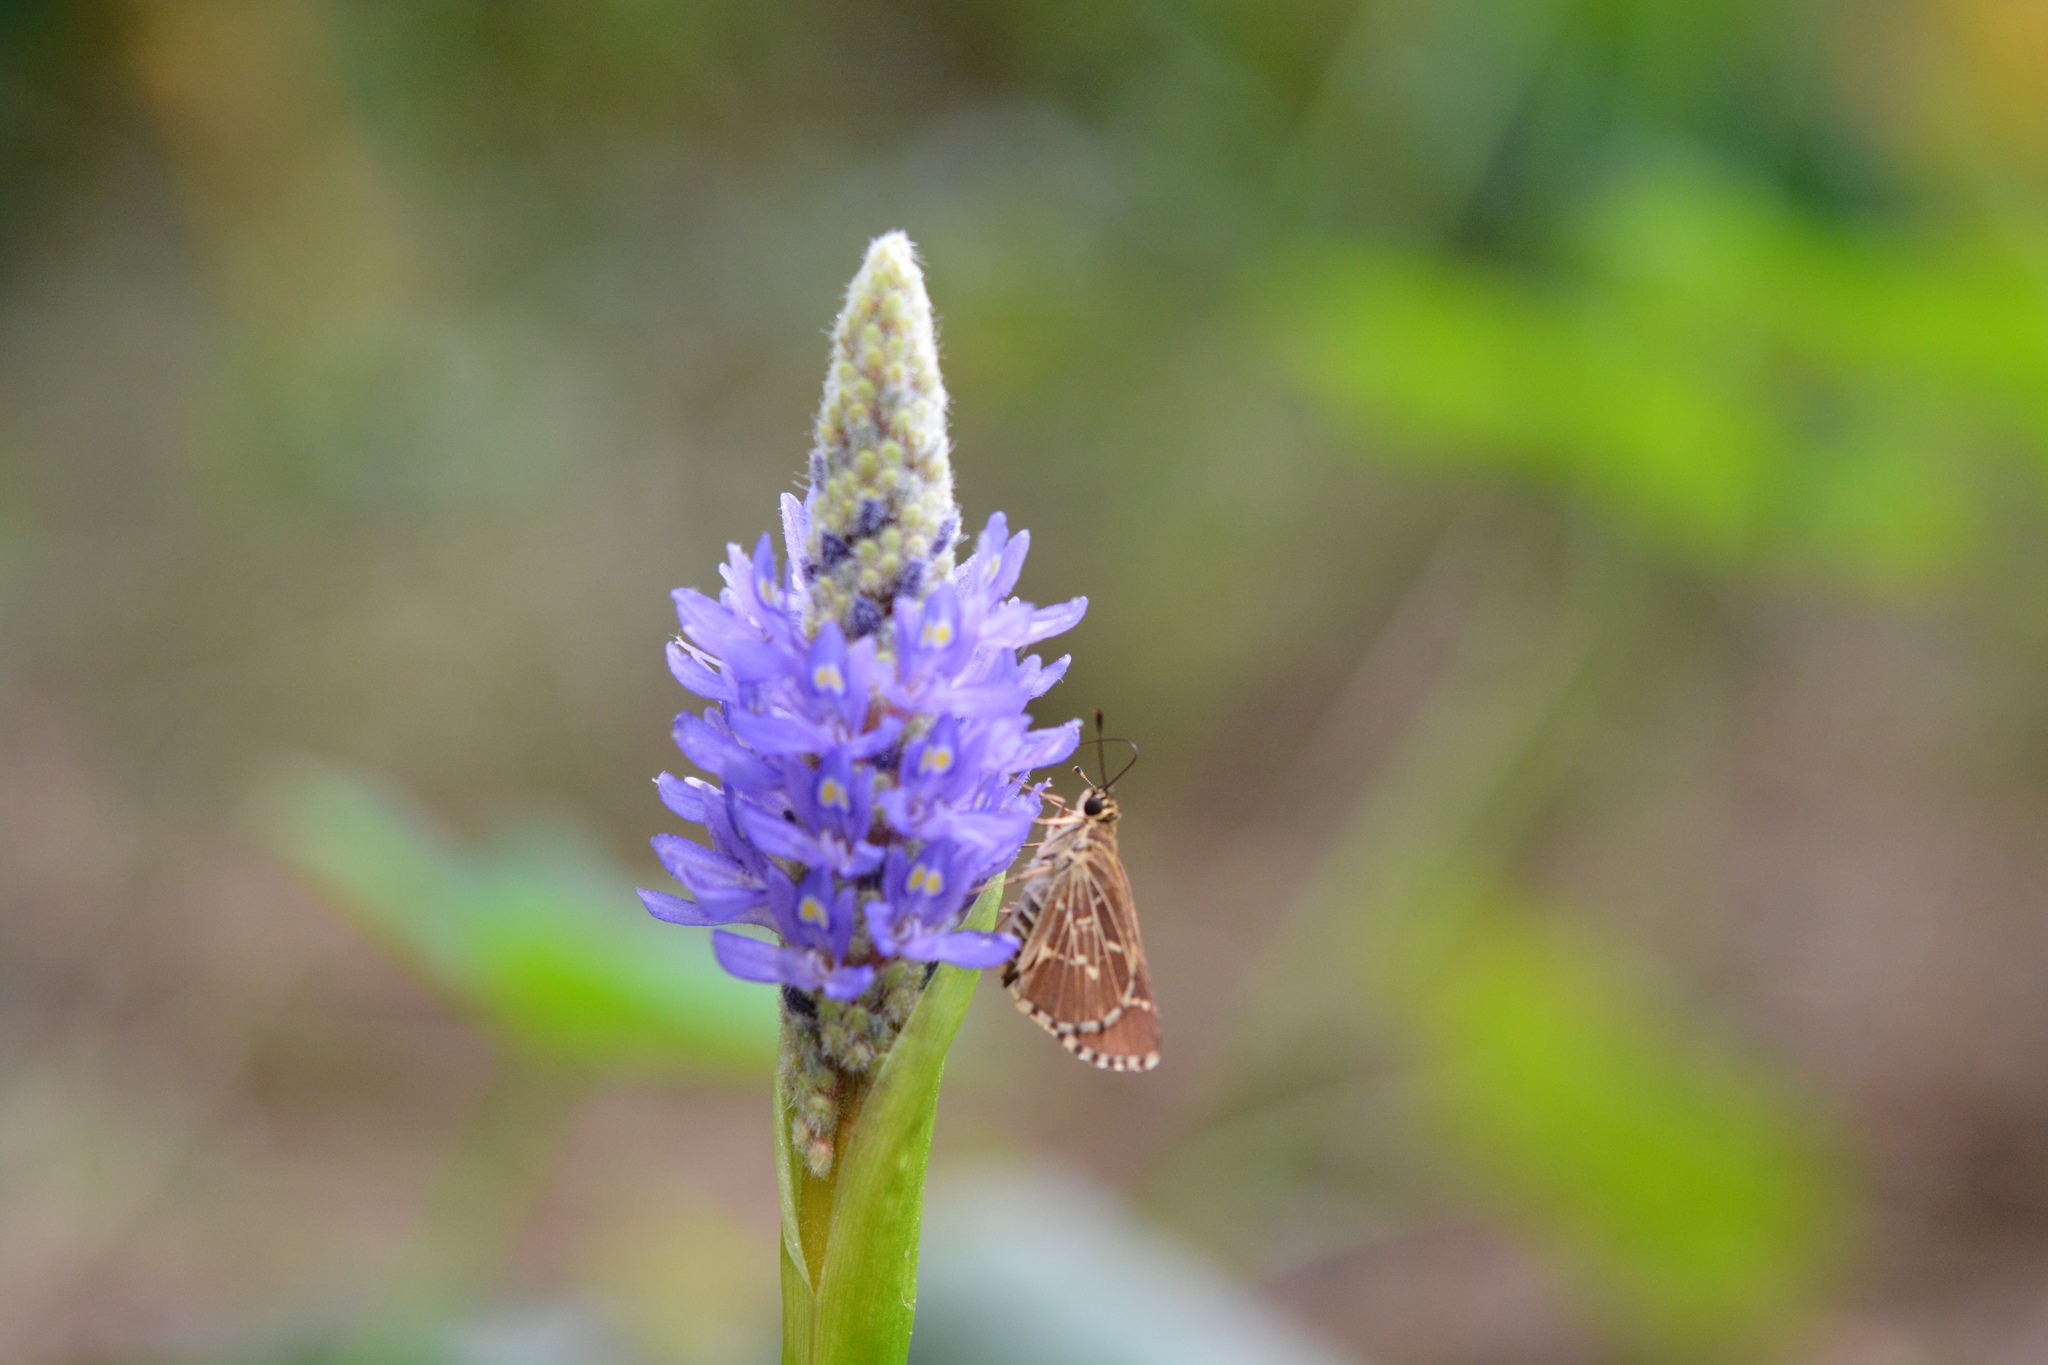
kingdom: Animalia
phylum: Arthropoda
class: Insecta
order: Lepidoptera
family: Hesperiidae
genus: Mastor
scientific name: Mastor aesculapius
